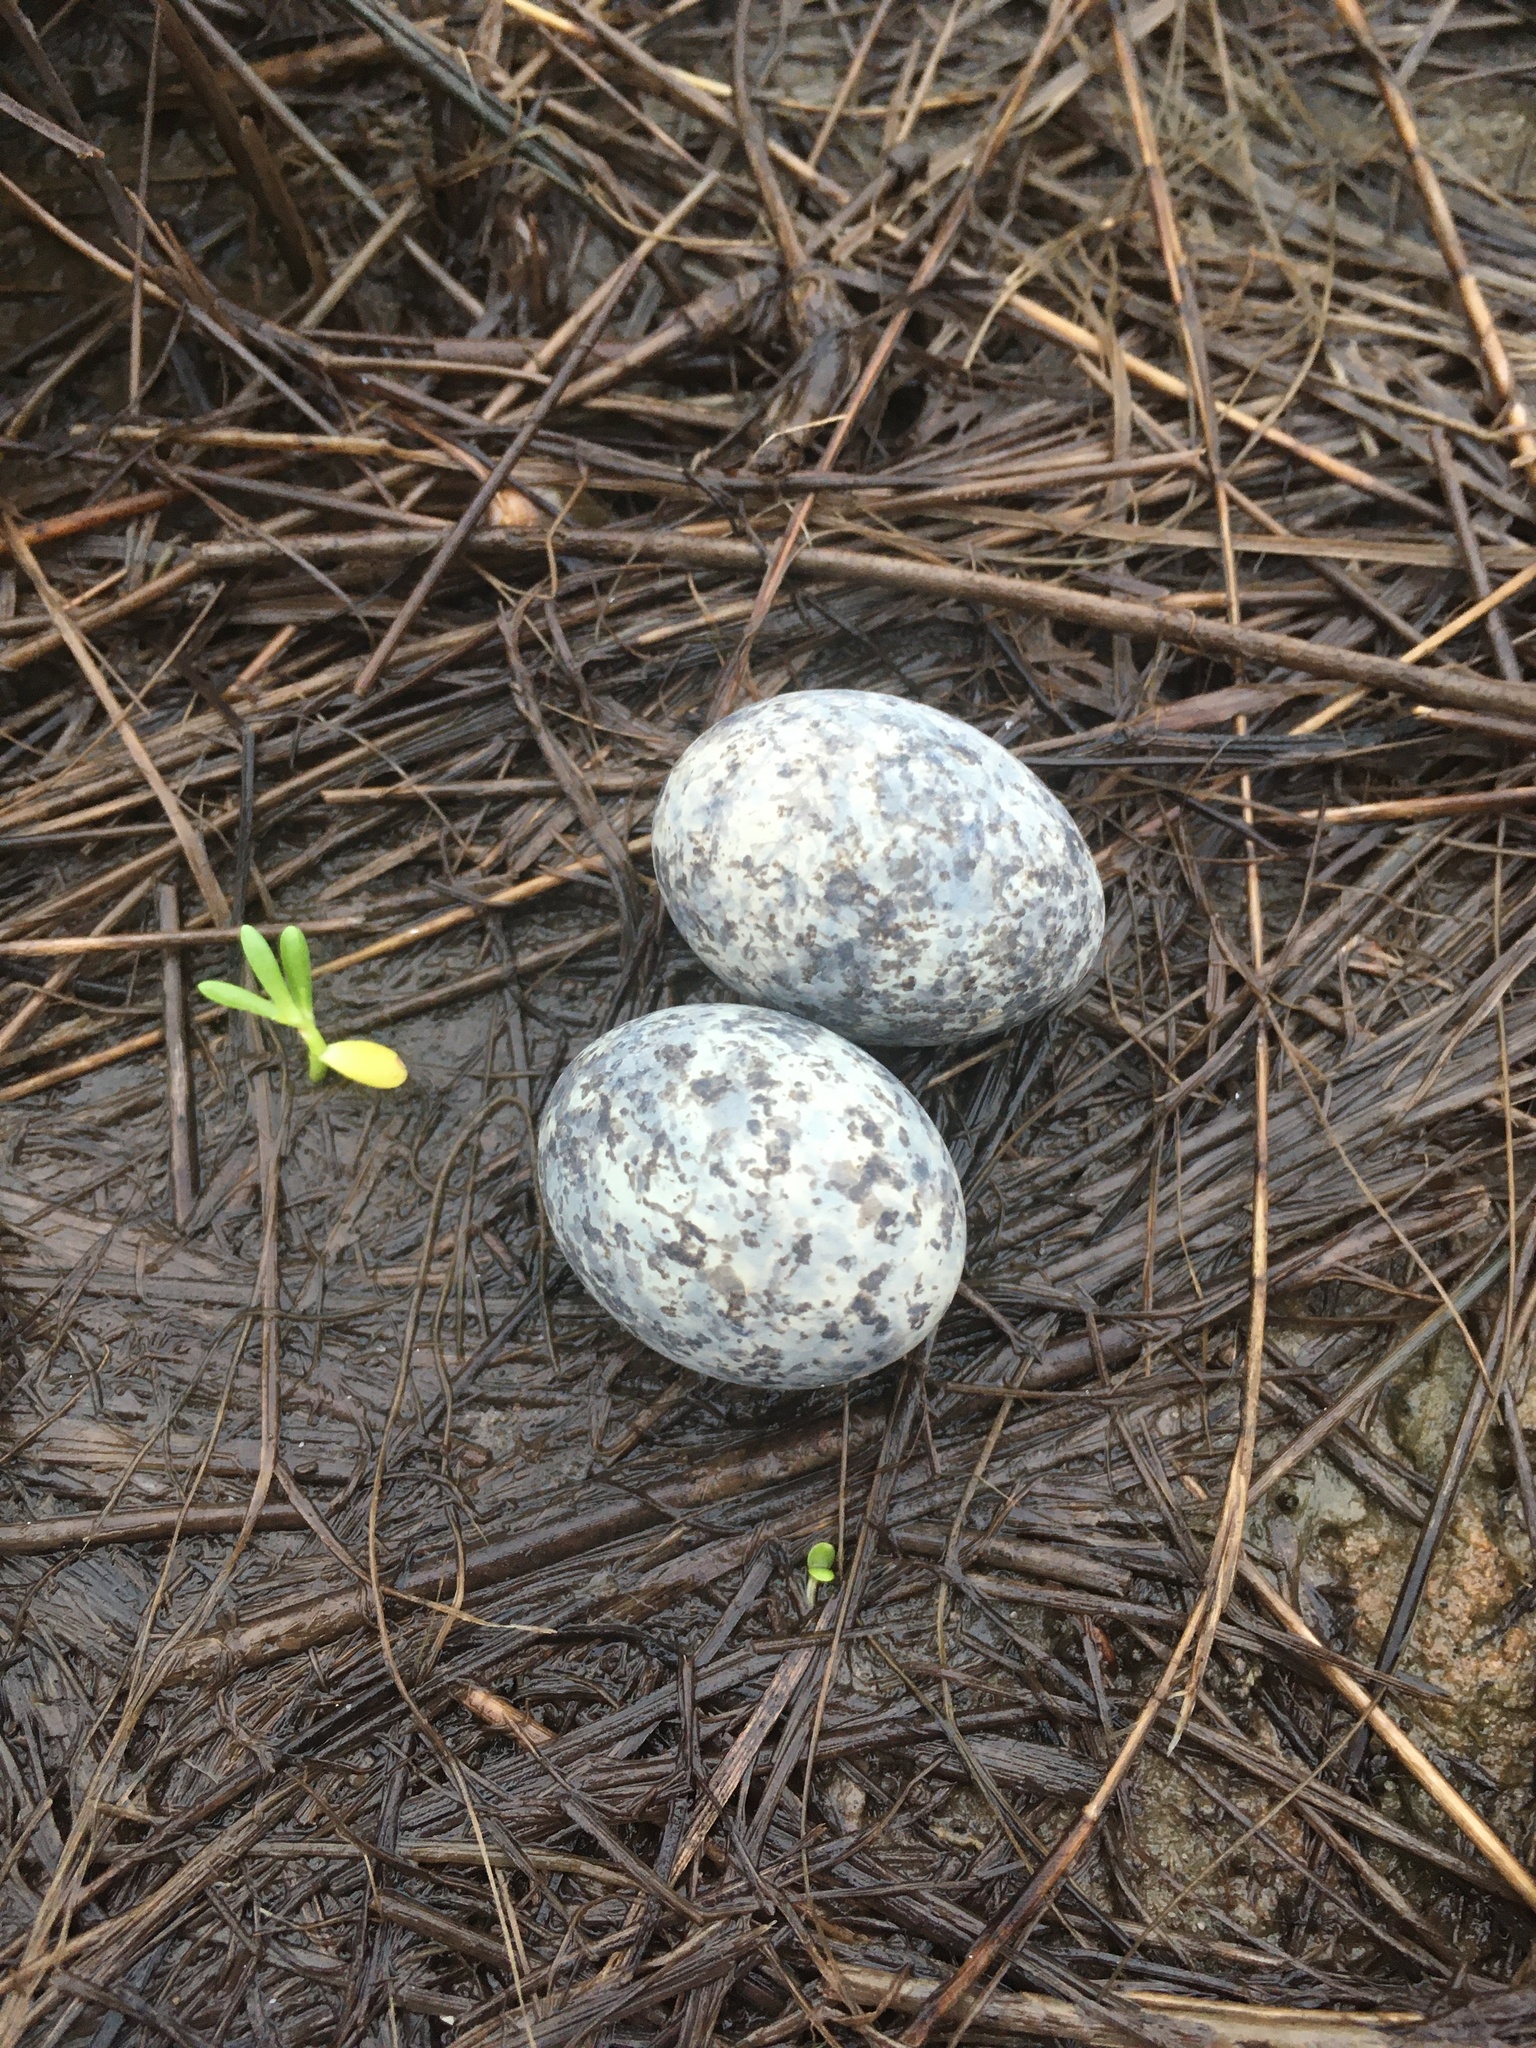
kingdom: Animalia
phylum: Chordata
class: Aves
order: Caprimulgiformes
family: Caprimulgidae
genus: Chordeiles
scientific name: Chordeiles minor
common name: Common nighthawk
